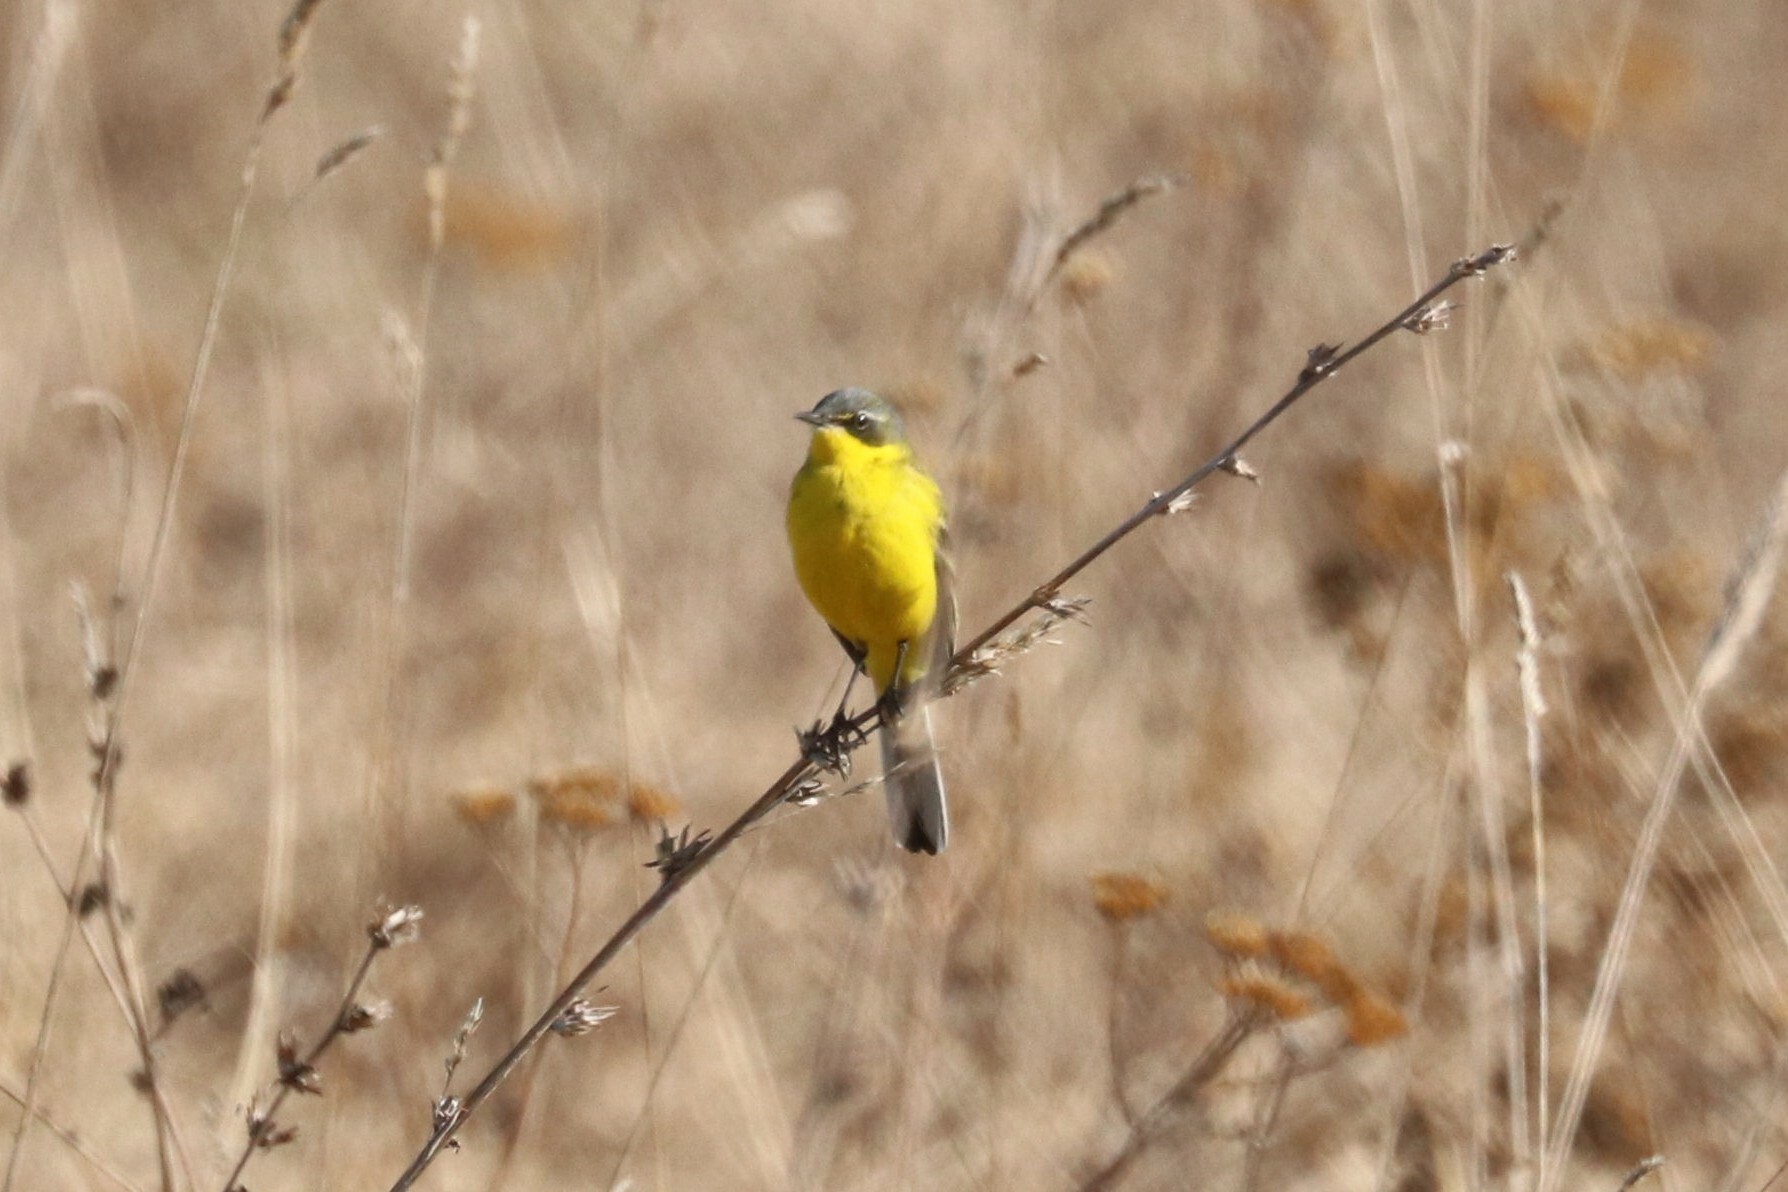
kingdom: Animalia
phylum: Chordata
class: Aves
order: Passeriformes
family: Motacillidae
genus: Motacilla
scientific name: Motacilla flava
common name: Western yellow wagtail
